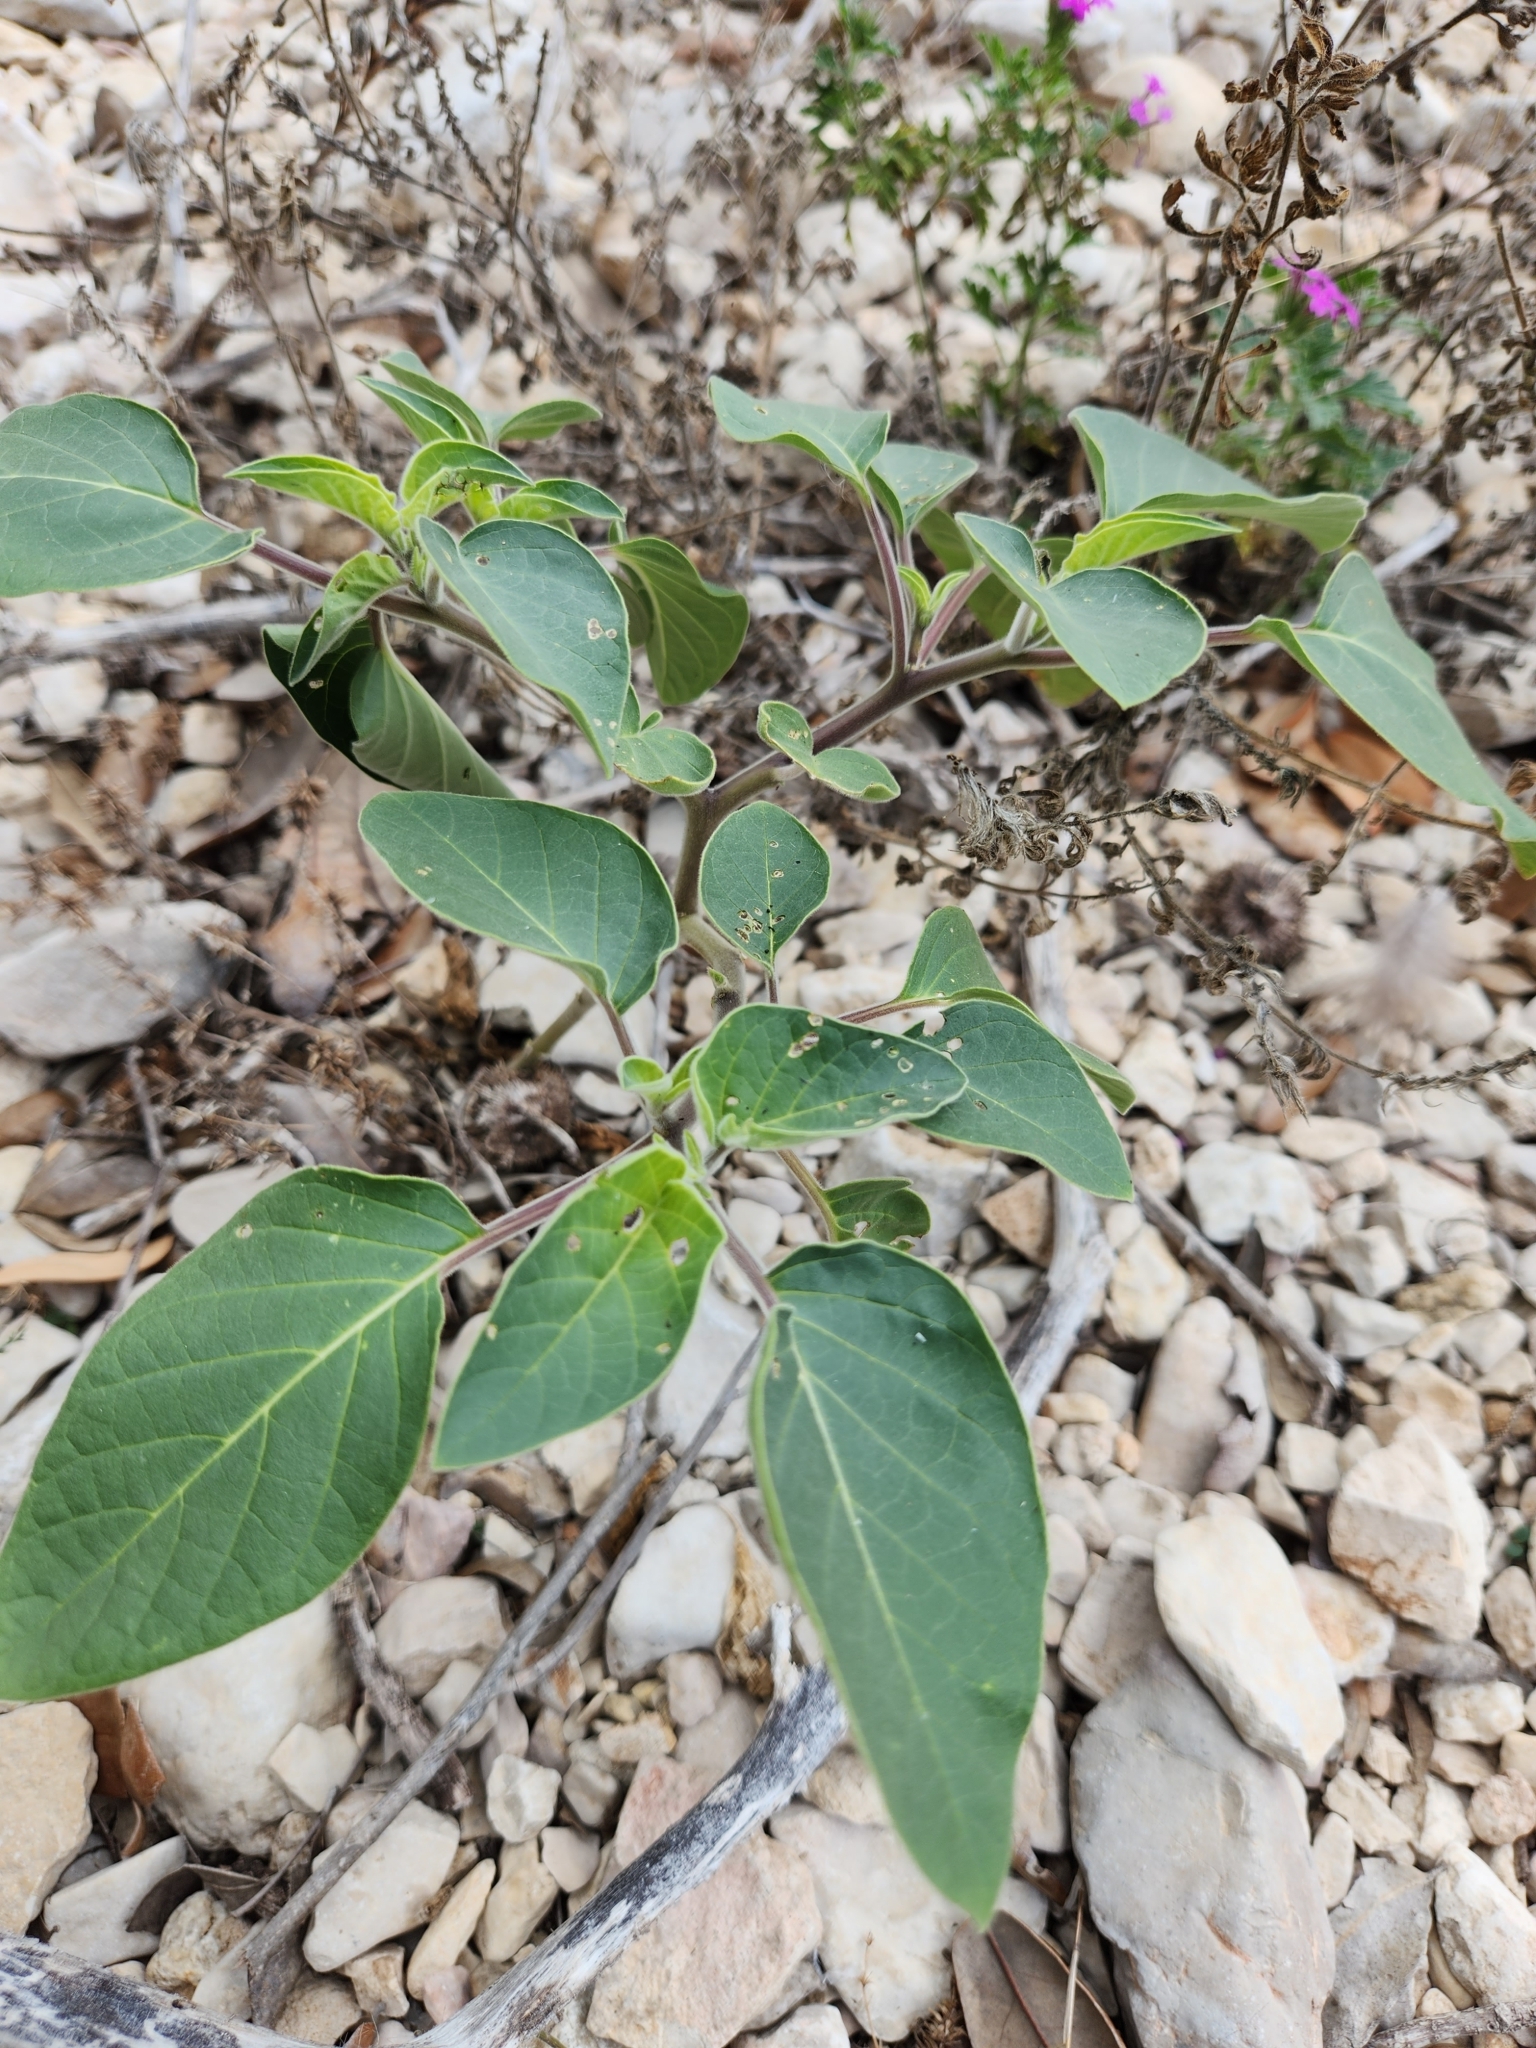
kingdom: Plantae
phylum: Tracheophyta
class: Magnoliopsida
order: Solanales
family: Solanaceae
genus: Datura
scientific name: Datura innoxia
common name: Downy thorn-apple
